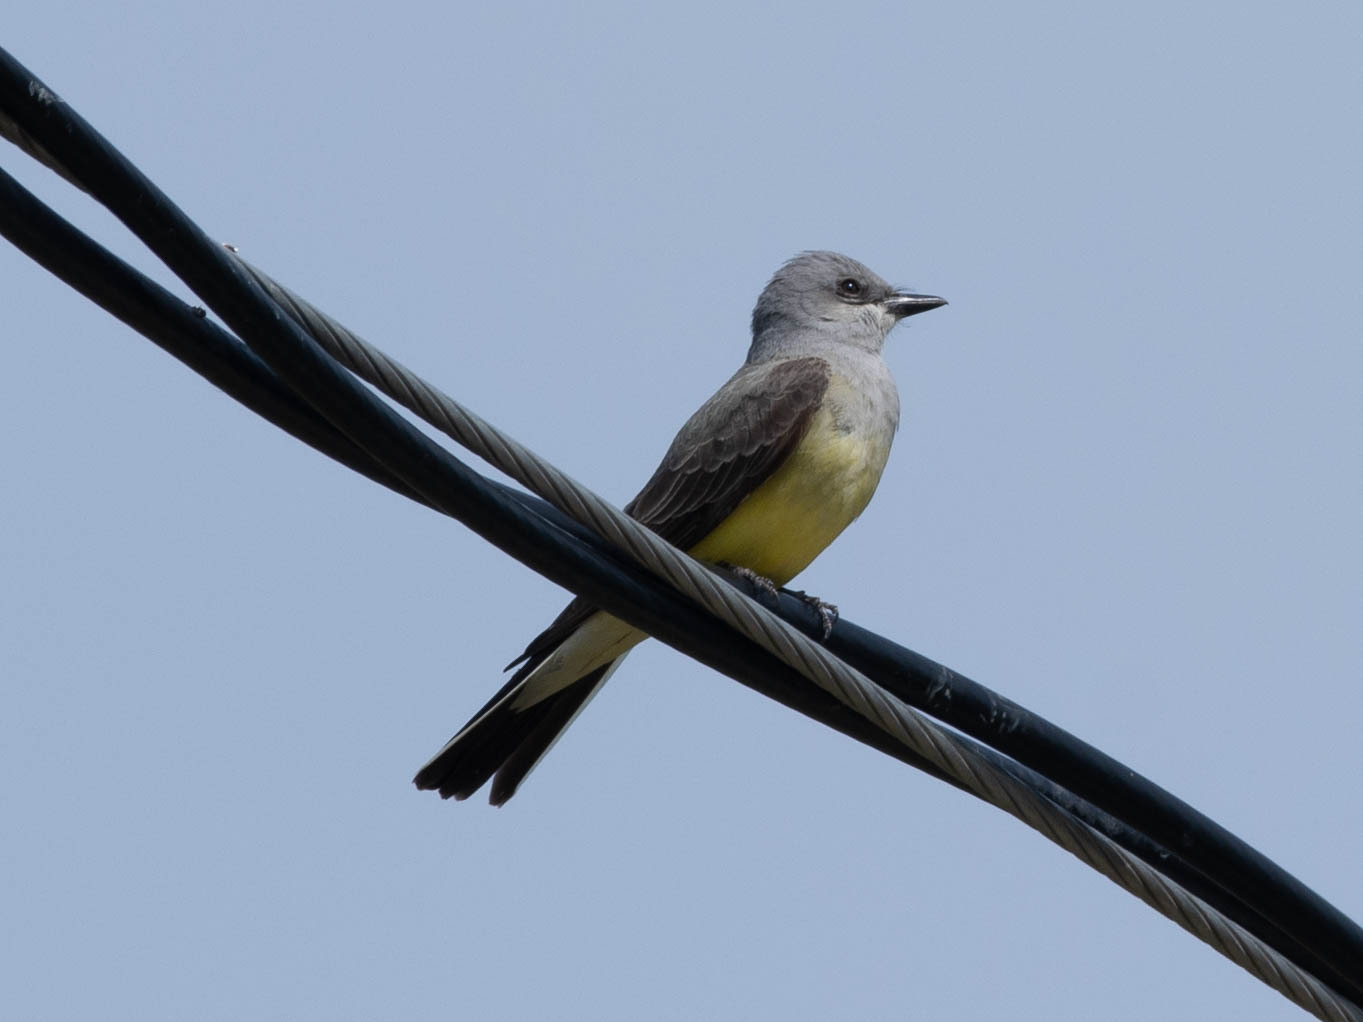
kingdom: Animalia
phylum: Chordata
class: Aves
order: Passeriformes
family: Tyrannidae
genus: Tyrannus
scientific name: Tyrannus verticalis
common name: Western kingbird
